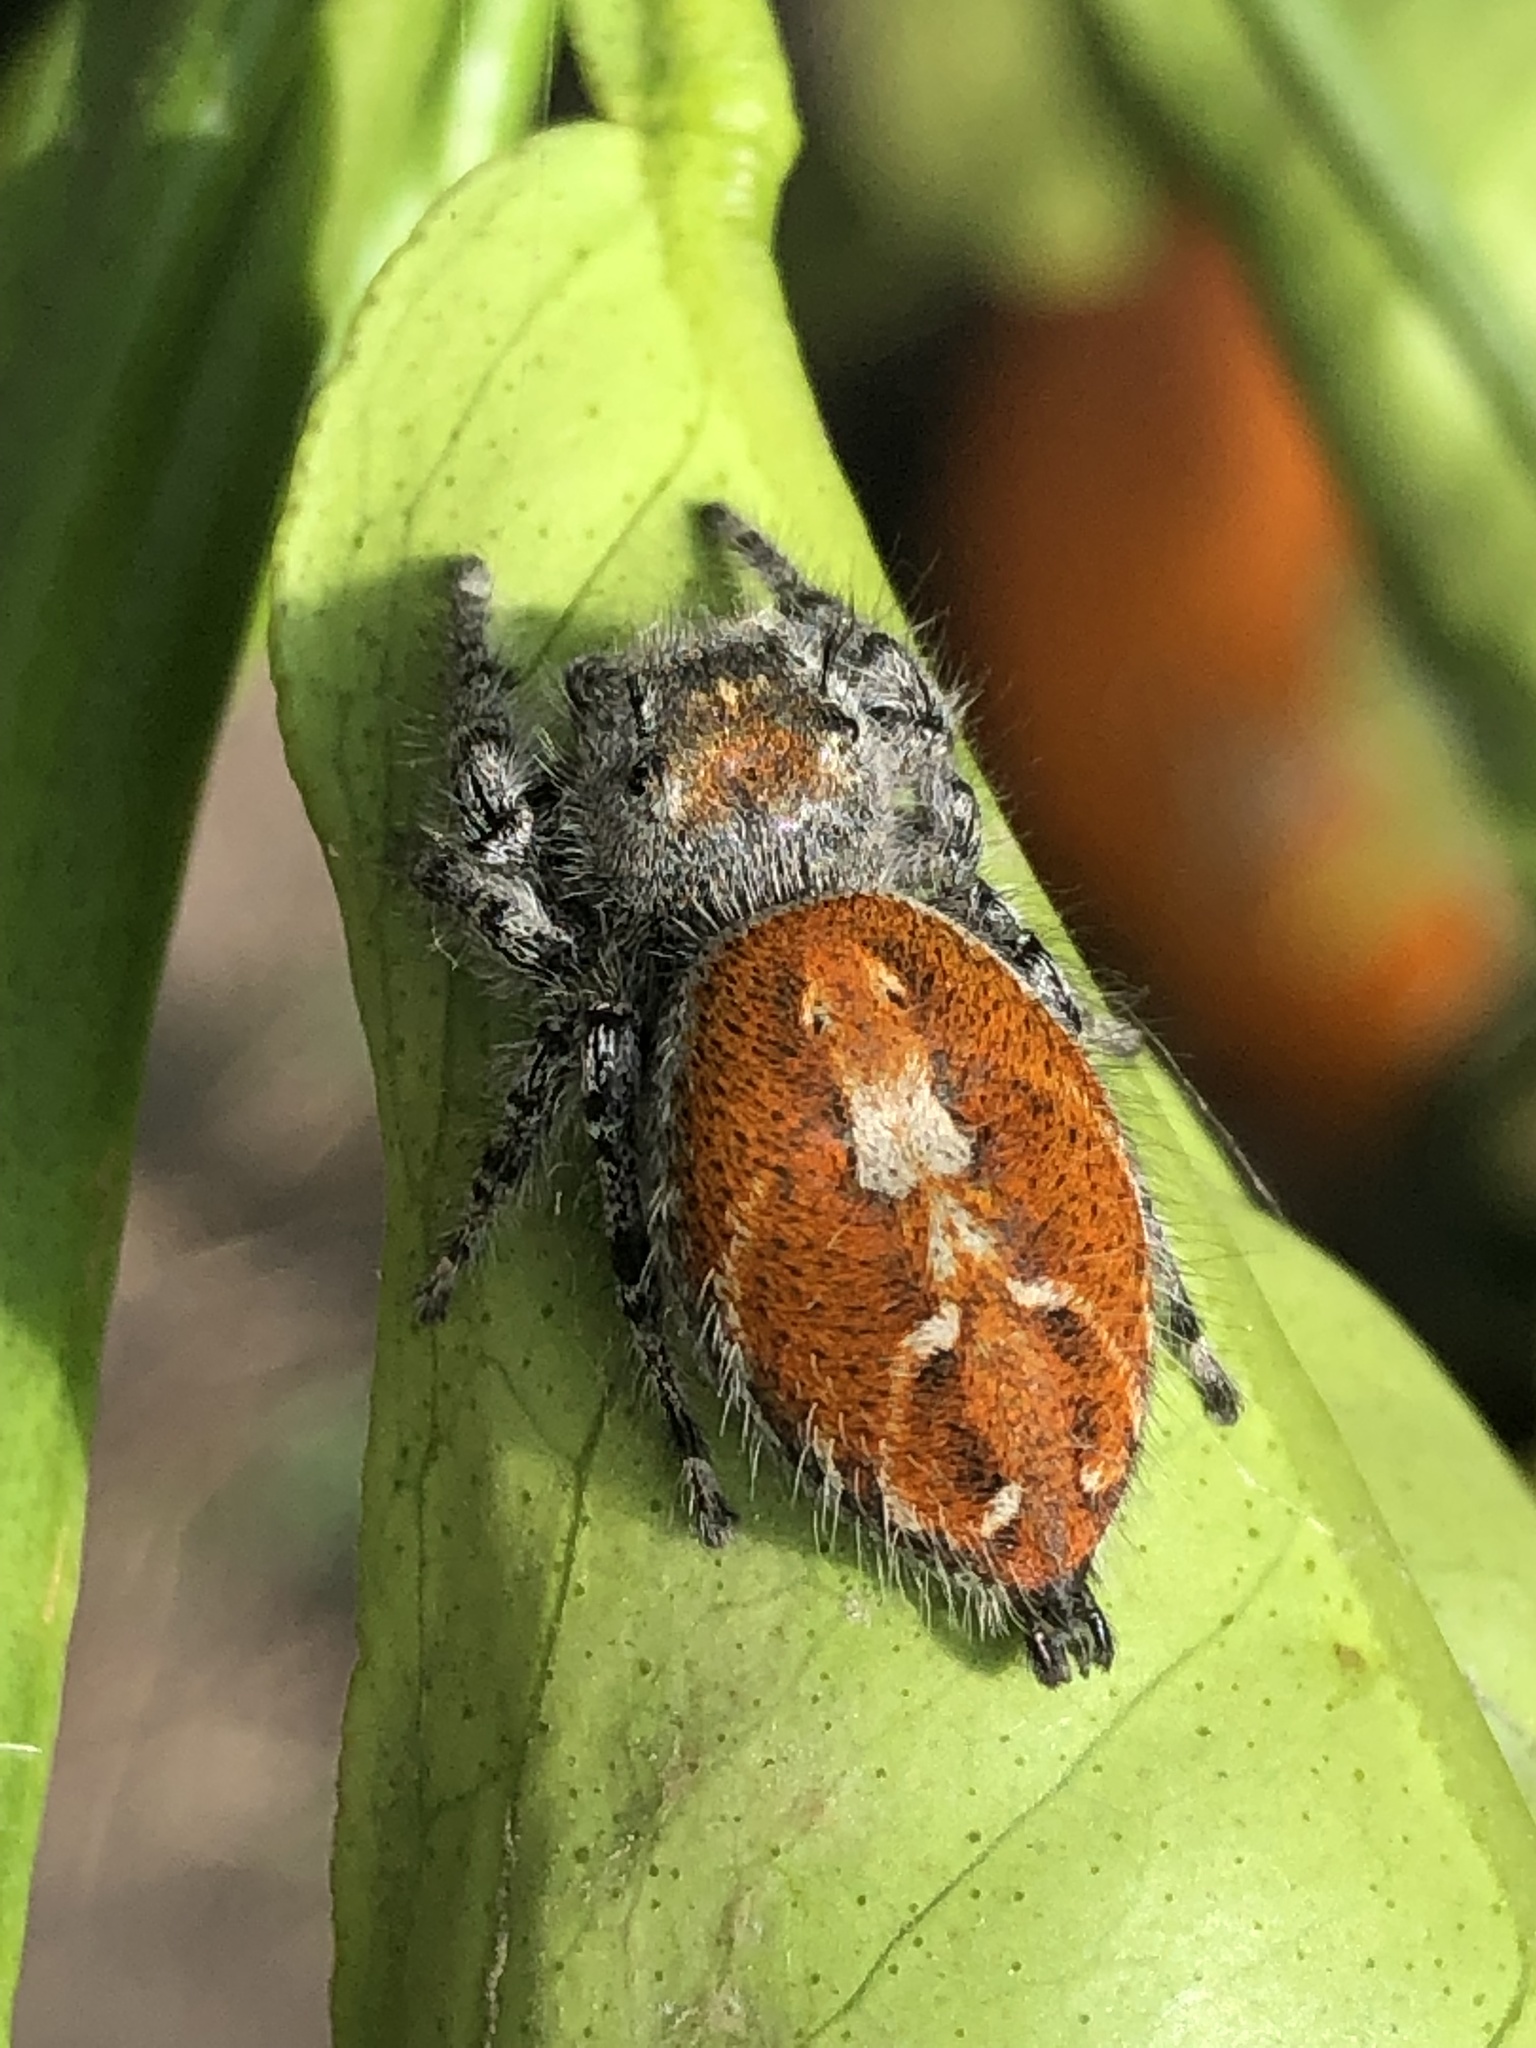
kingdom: Animalia
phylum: Arthropoda
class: Arachnida
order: Araneae
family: Salticidae
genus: Phidippus
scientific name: Phidippus adumbratus
